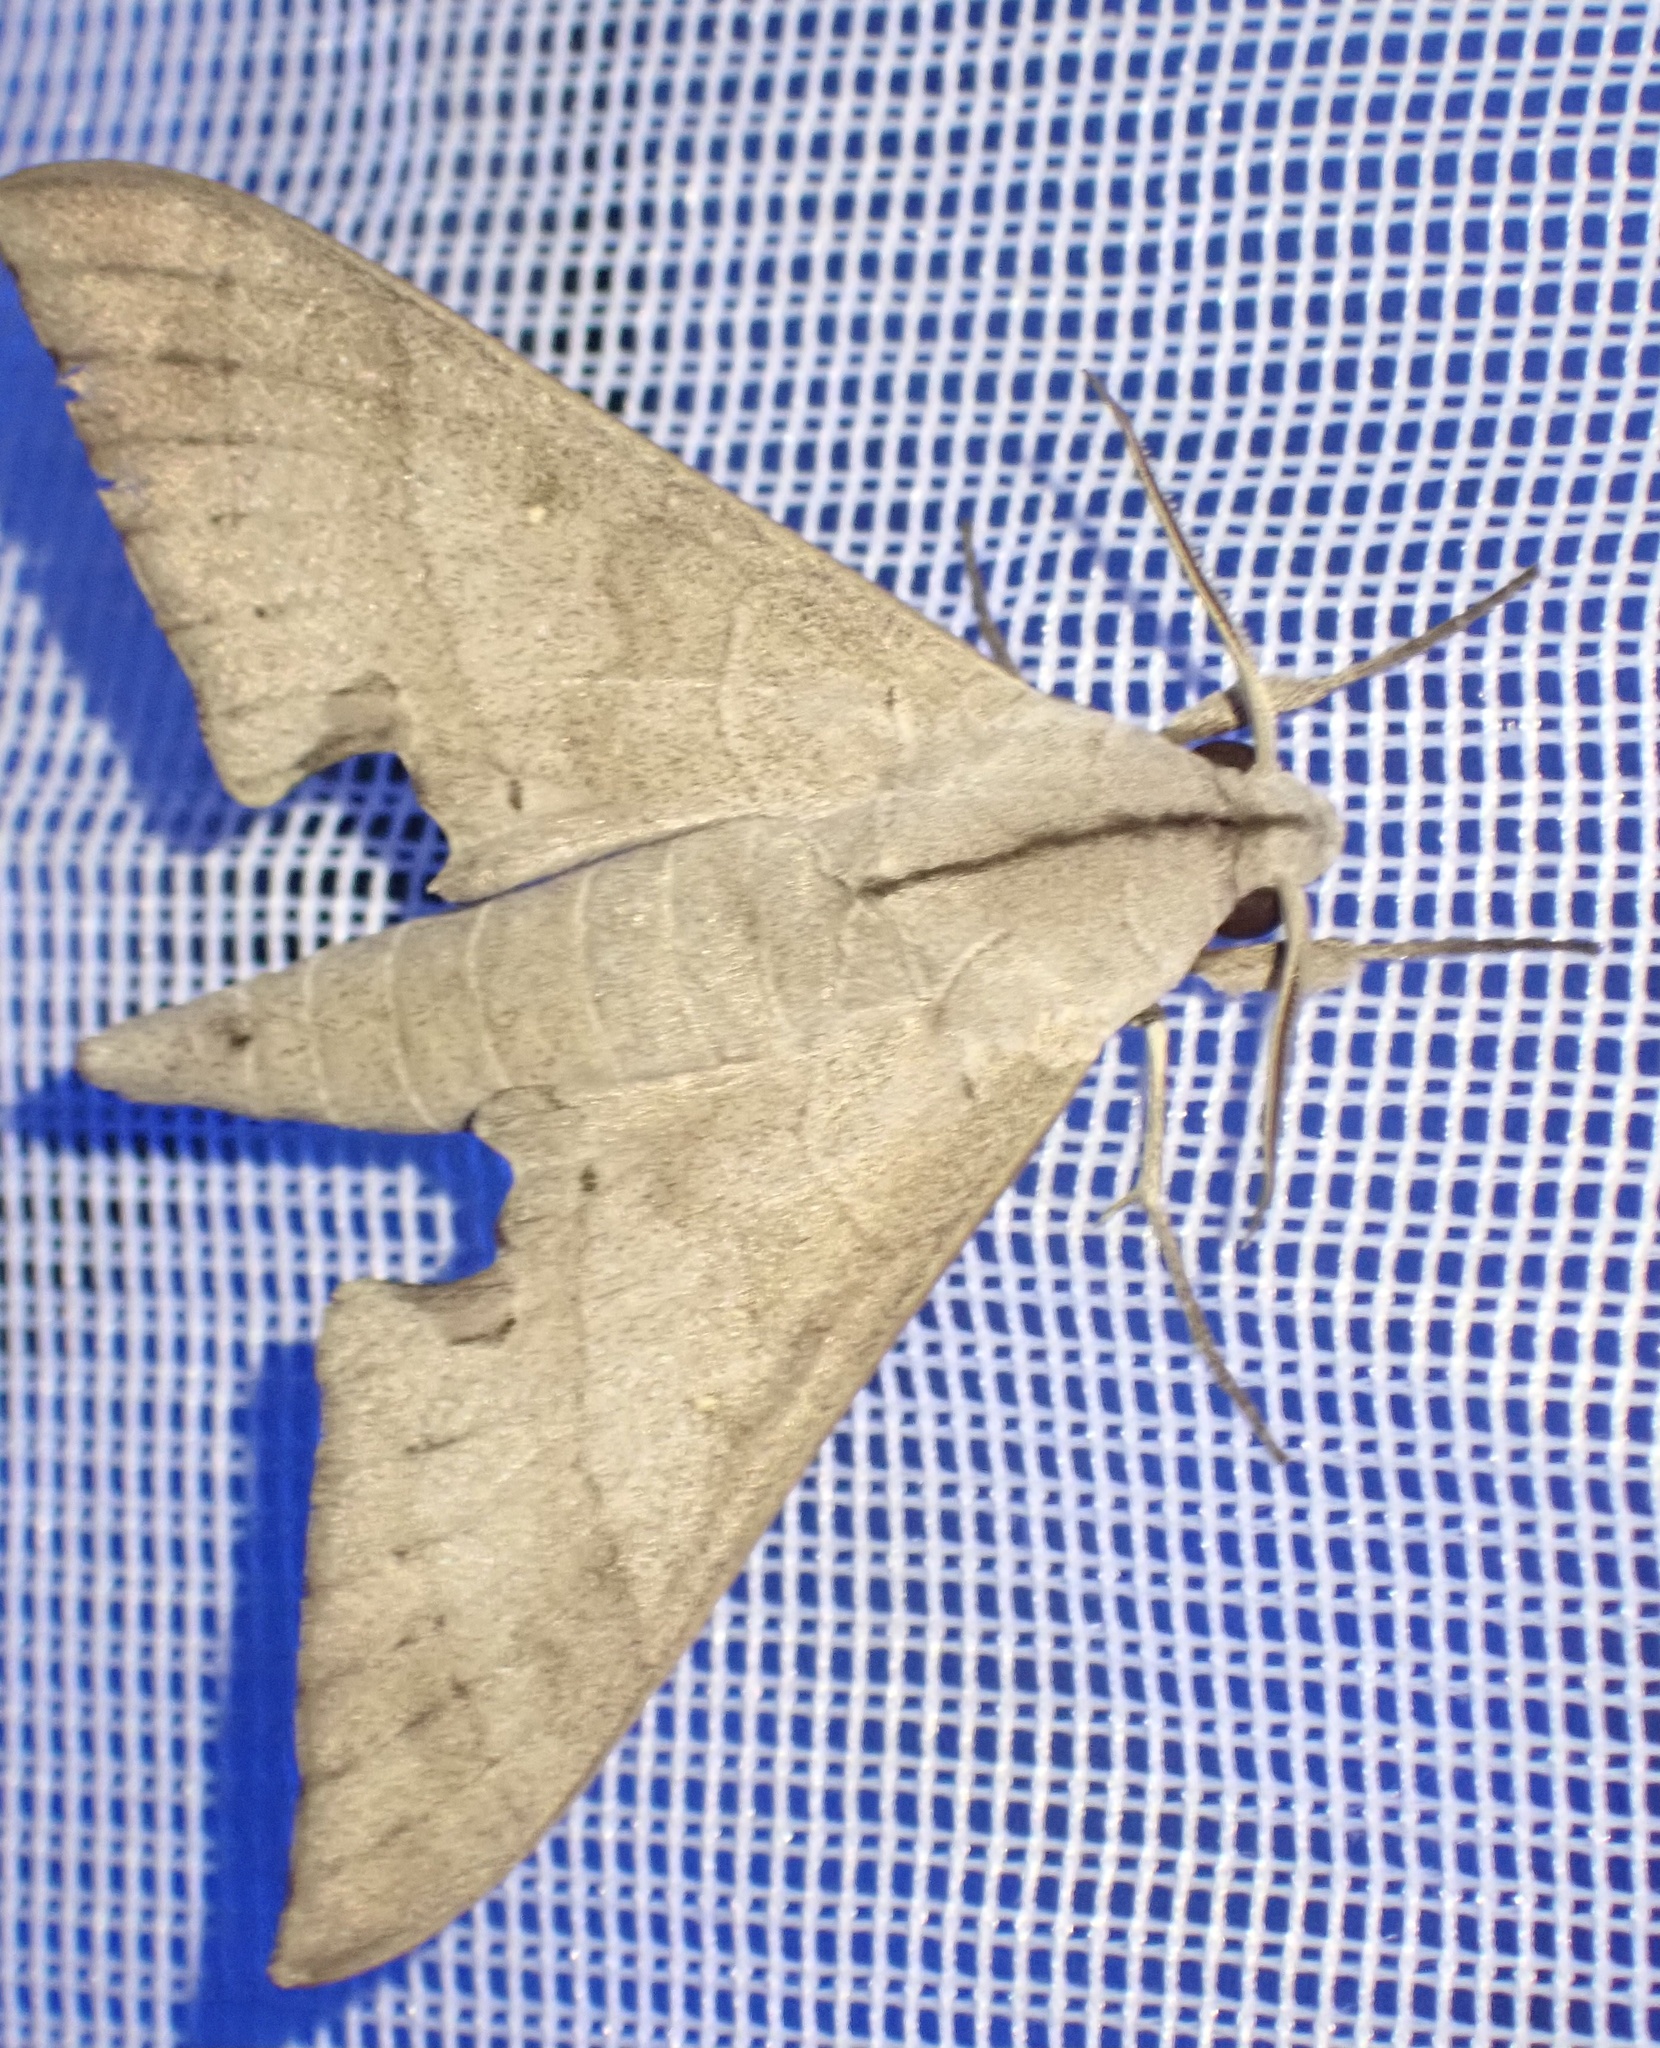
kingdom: Animalia
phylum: Arthropoda
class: Insecta
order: Lepidoptera
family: Sphingidae
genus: Polyptychus
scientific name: Polyptychus carteri
